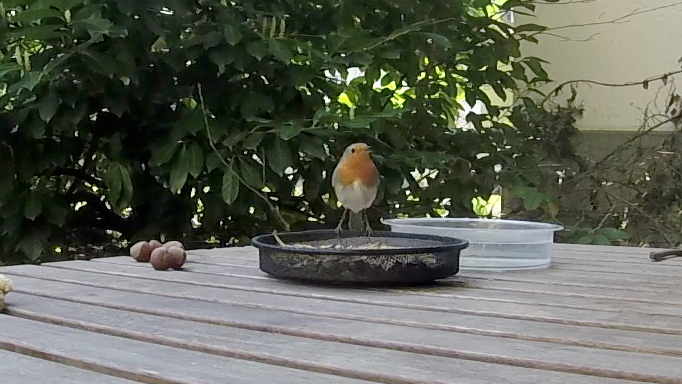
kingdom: Animalia
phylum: Chordata
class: Aves
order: Passeriformes
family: Muscicapidae
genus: Erithacus
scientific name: Erithacus rubecula
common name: European robin
